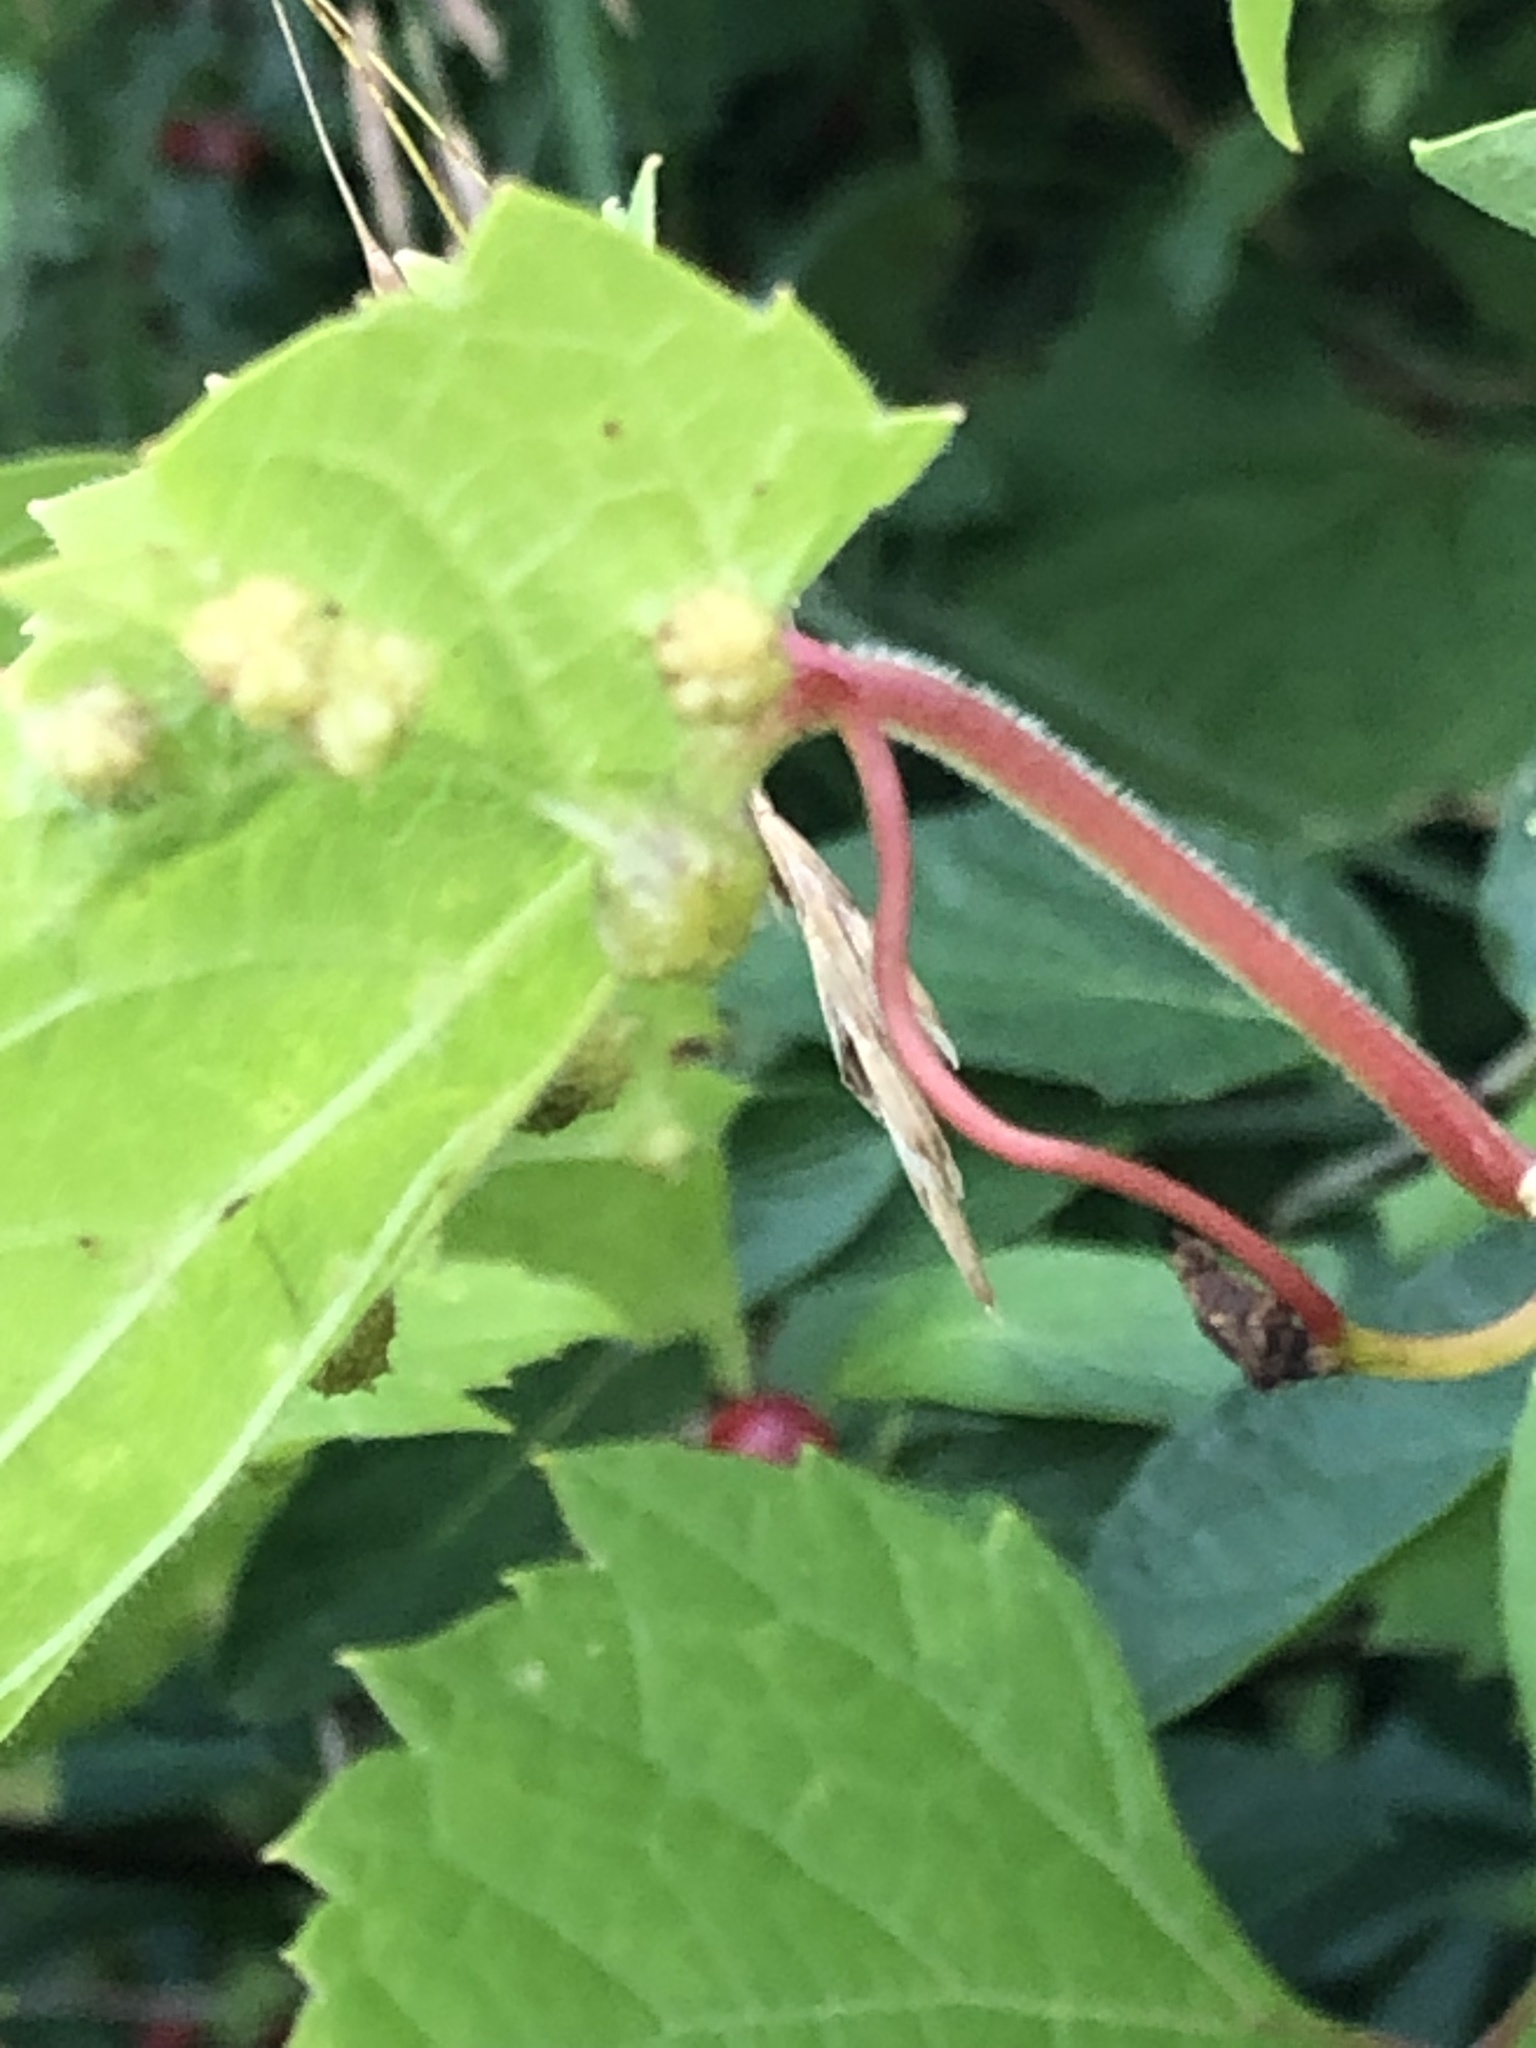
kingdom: Animalia
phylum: Arthropoda
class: Insecta
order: Hemiptera
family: Phylloxeridae
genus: Daktulosphaira
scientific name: Daktulosphaira vitifoliae
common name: Grape phylloxera
